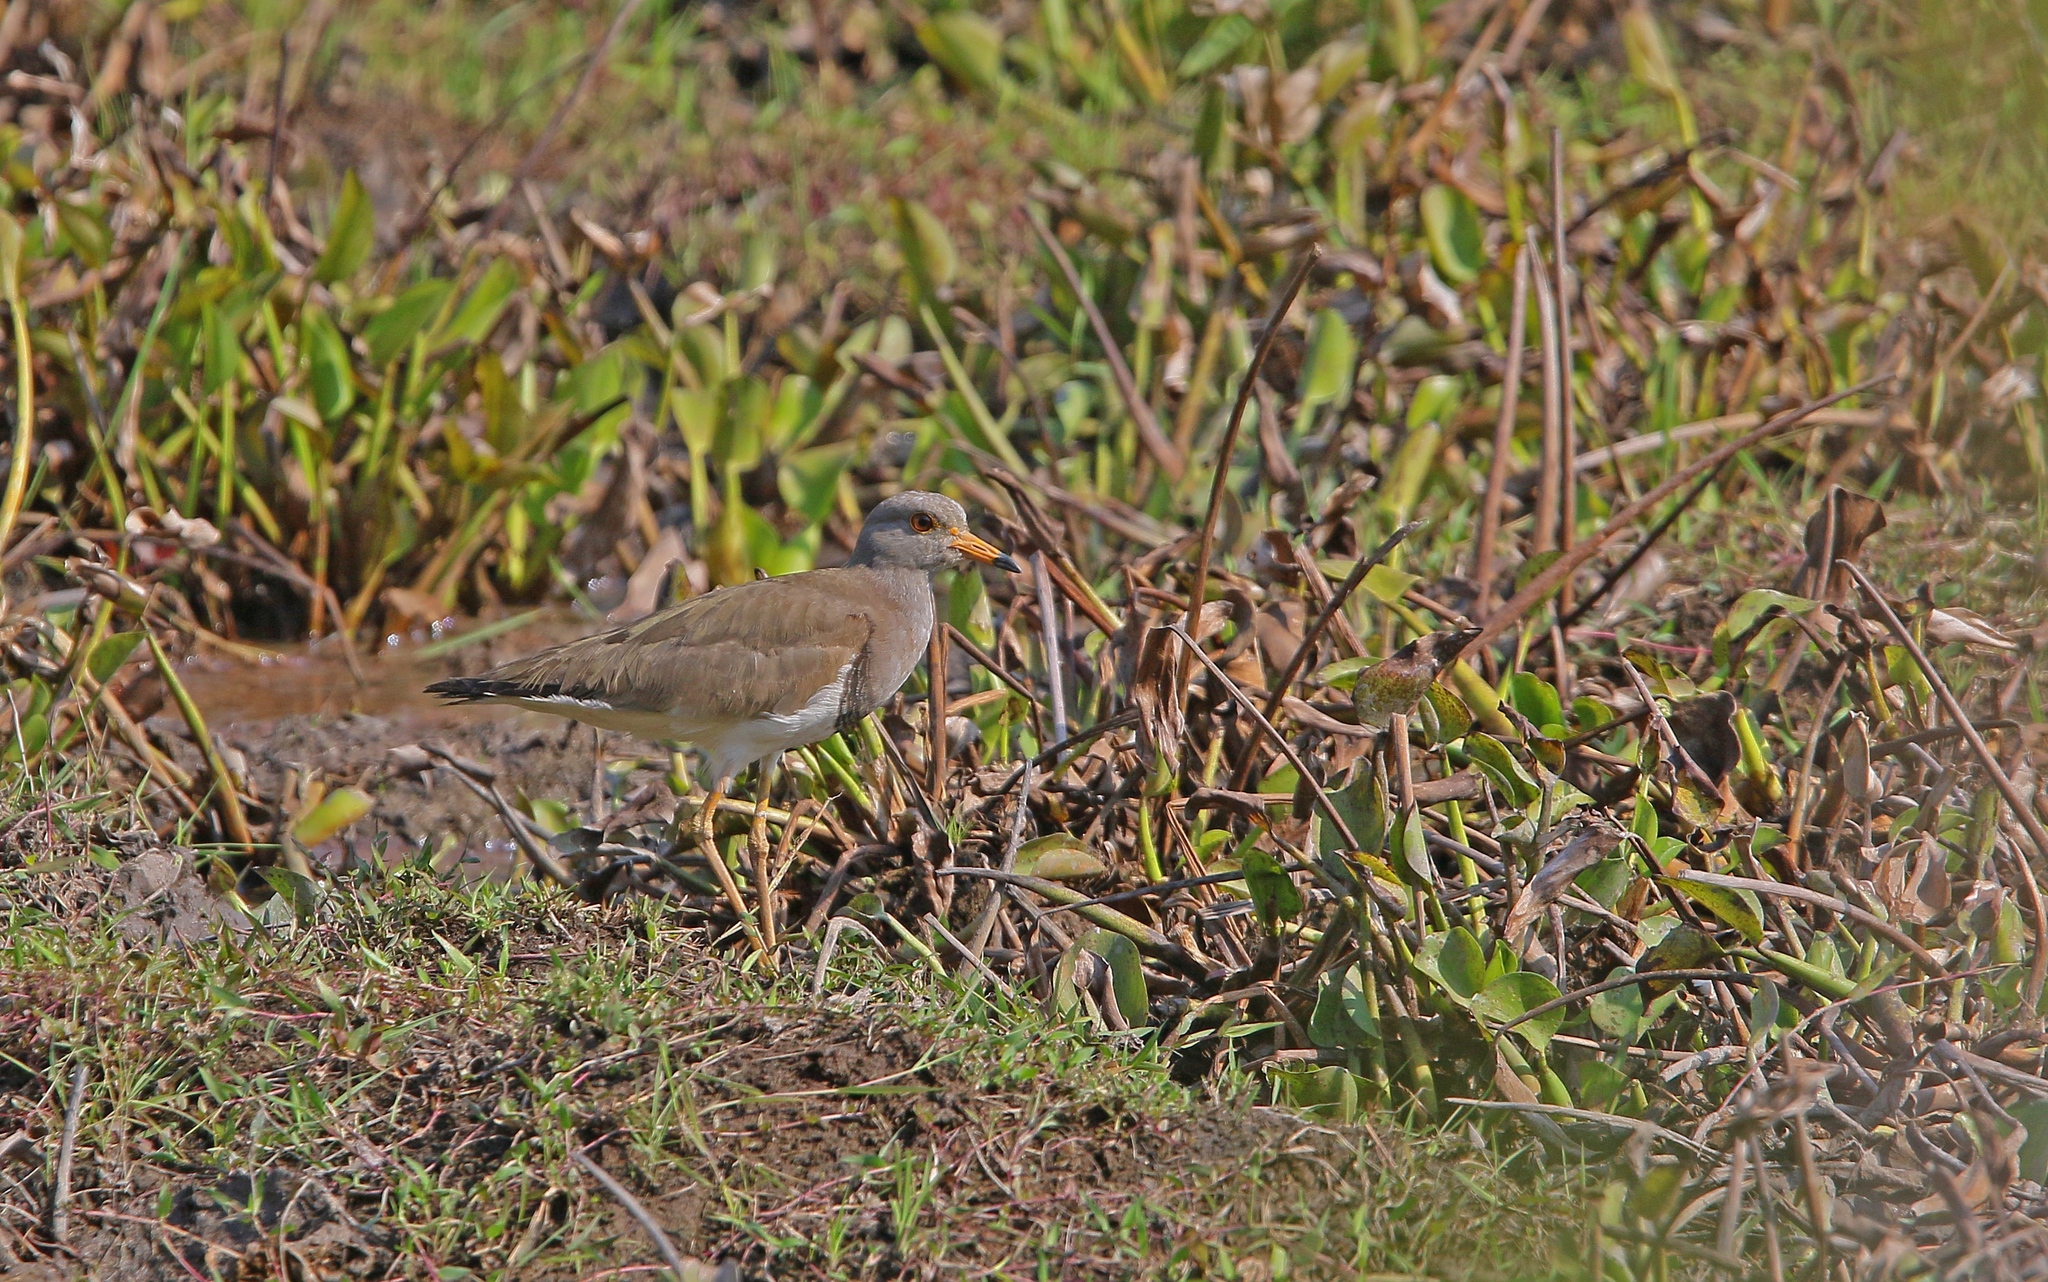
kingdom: Animalia
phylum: Chordata
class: Aves
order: Charadriiformes
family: Charadriidae
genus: Vanellus
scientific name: Vanellus cinereus
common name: Grey-headed lapwing
